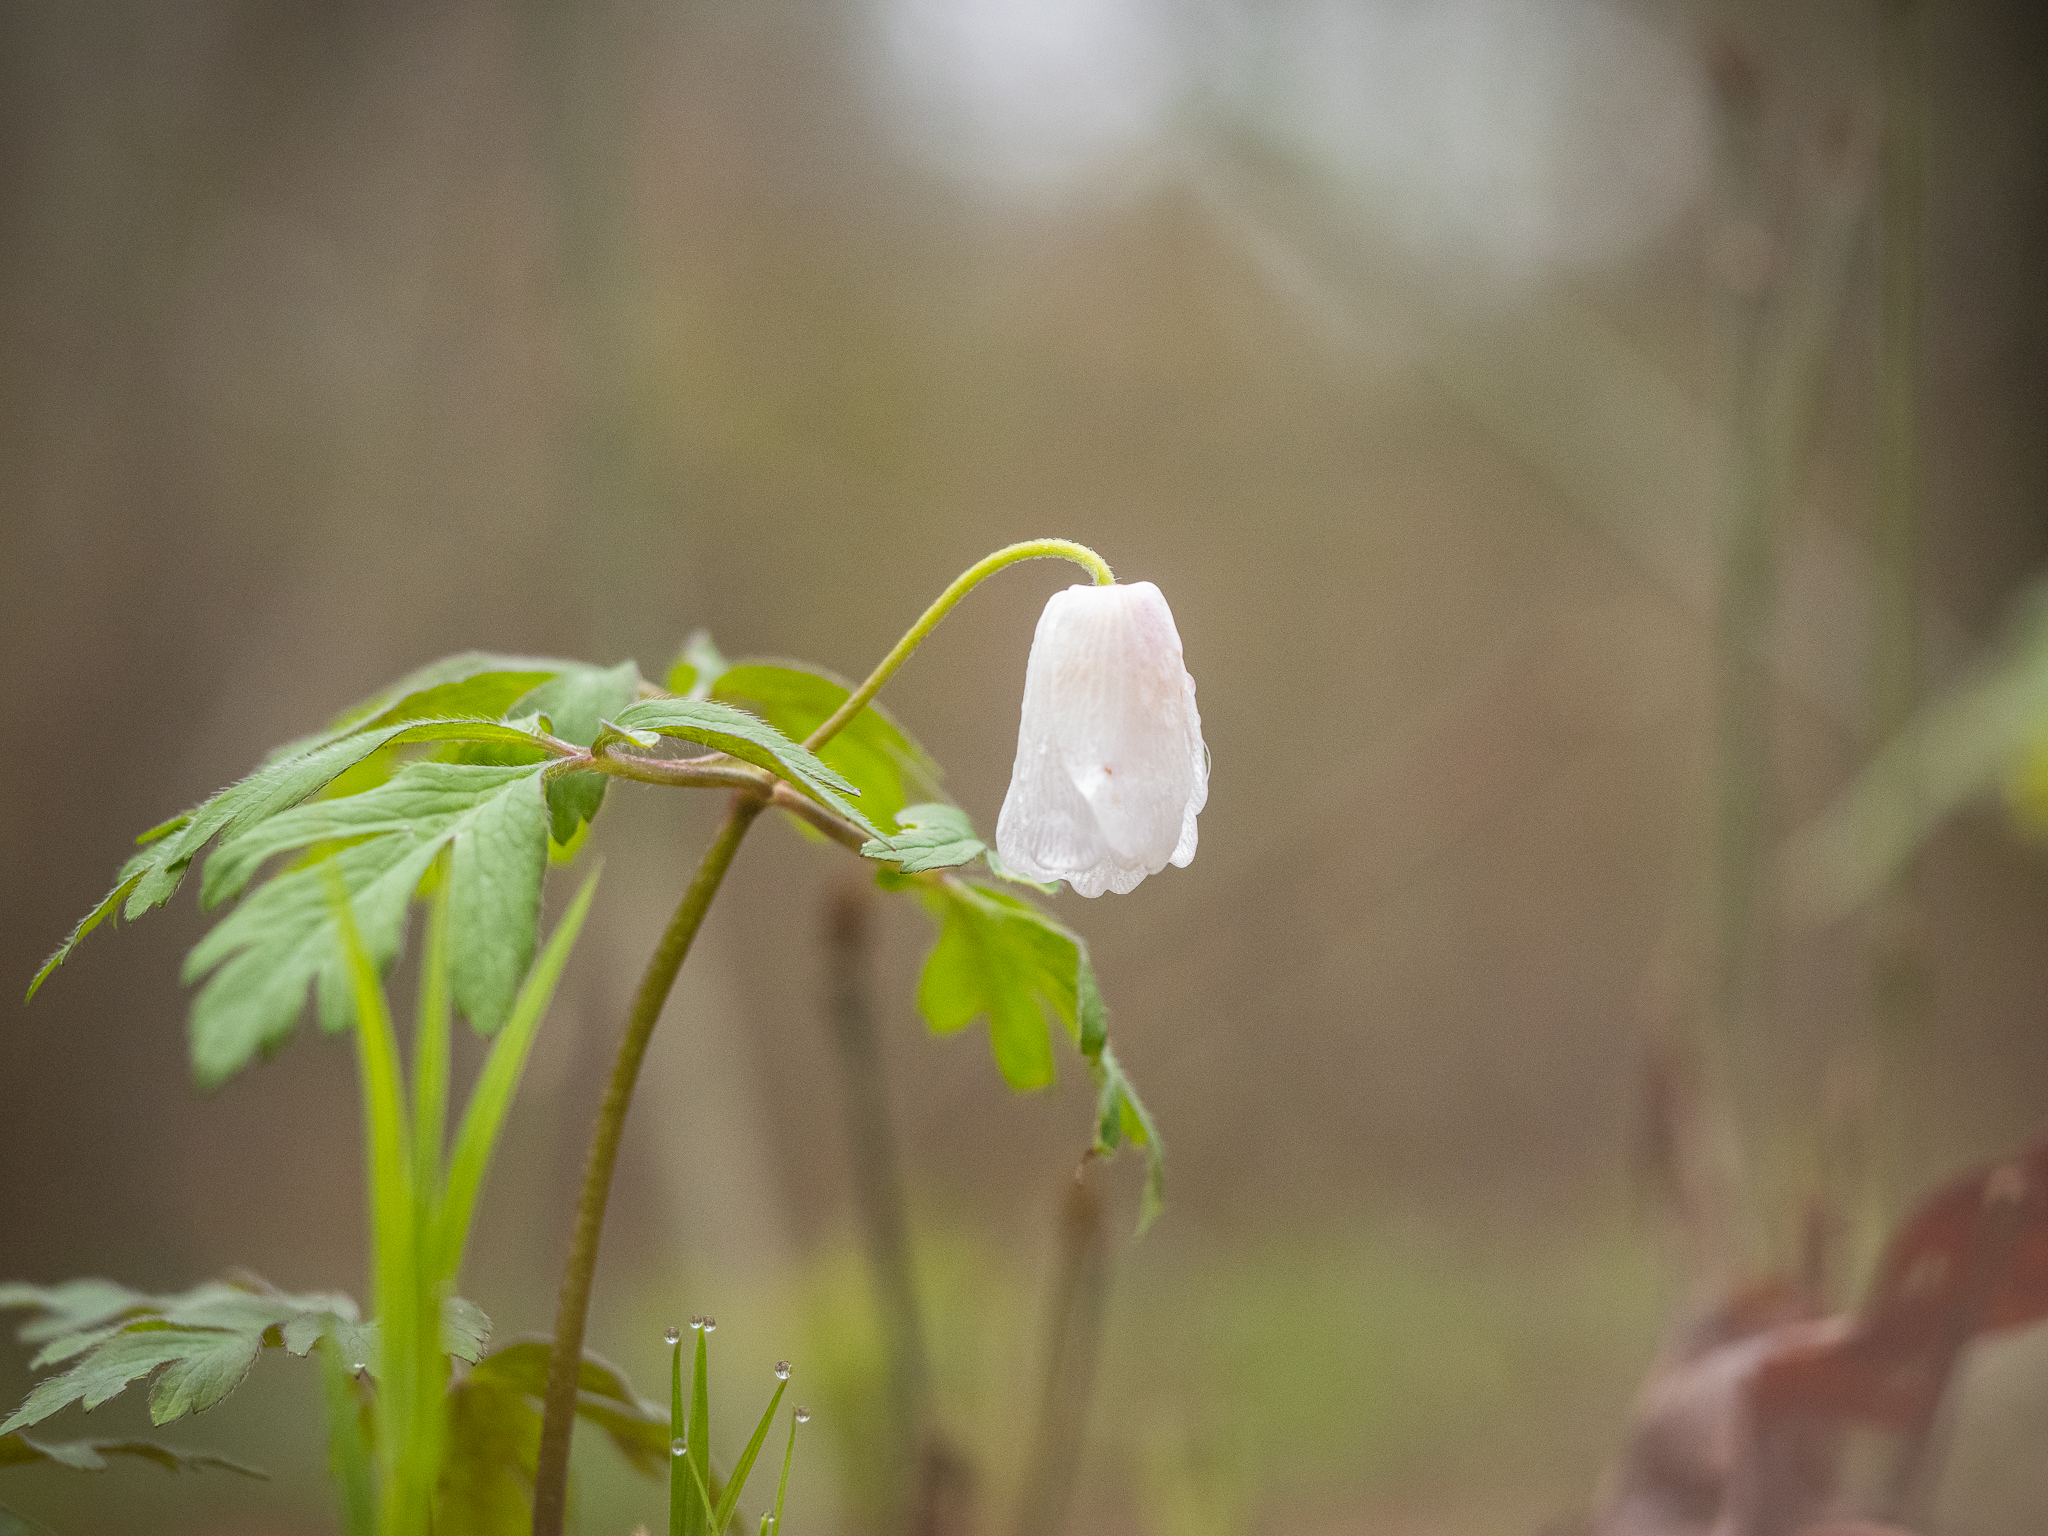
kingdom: Plantae
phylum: Tracheophyta
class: Magnoliopsida
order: Ranunculales
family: Ranunculaceae
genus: Anemone
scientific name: Anemone nemorosa
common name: Wood anemone
